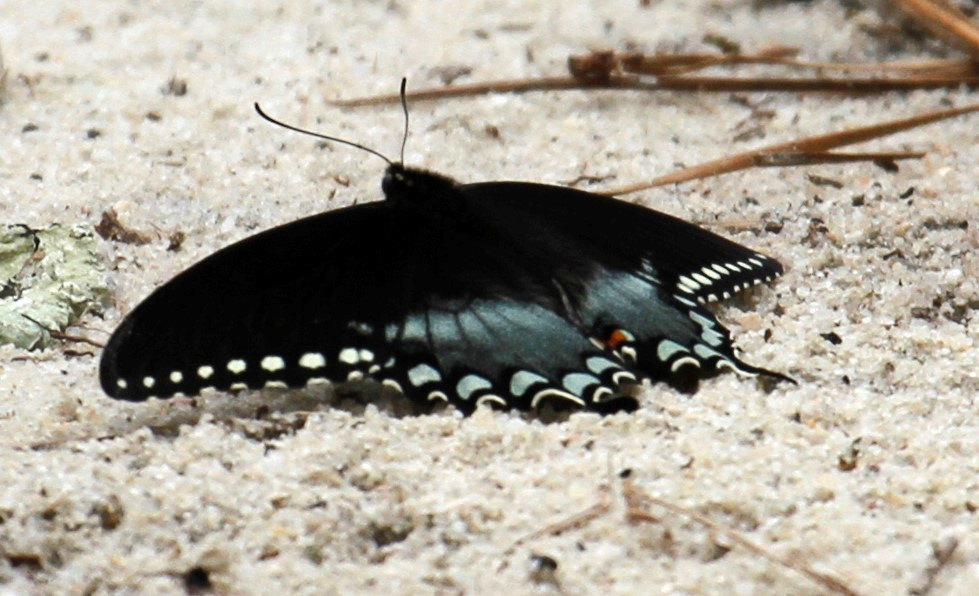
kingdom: Animalia
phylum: Arthropoda
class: Insecta
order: Lepidoptera
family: Papilionidae
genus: Papilio
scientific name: Papilio troilus
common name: Spicebush swallowtail
